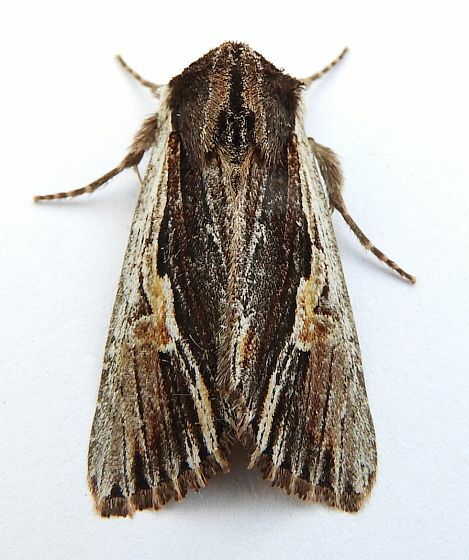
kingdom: Animalia
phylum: Arthropoda
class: Insecta
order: Lepidoptera
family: Noctuidae
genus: Achatia
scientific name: Achatia evicta
